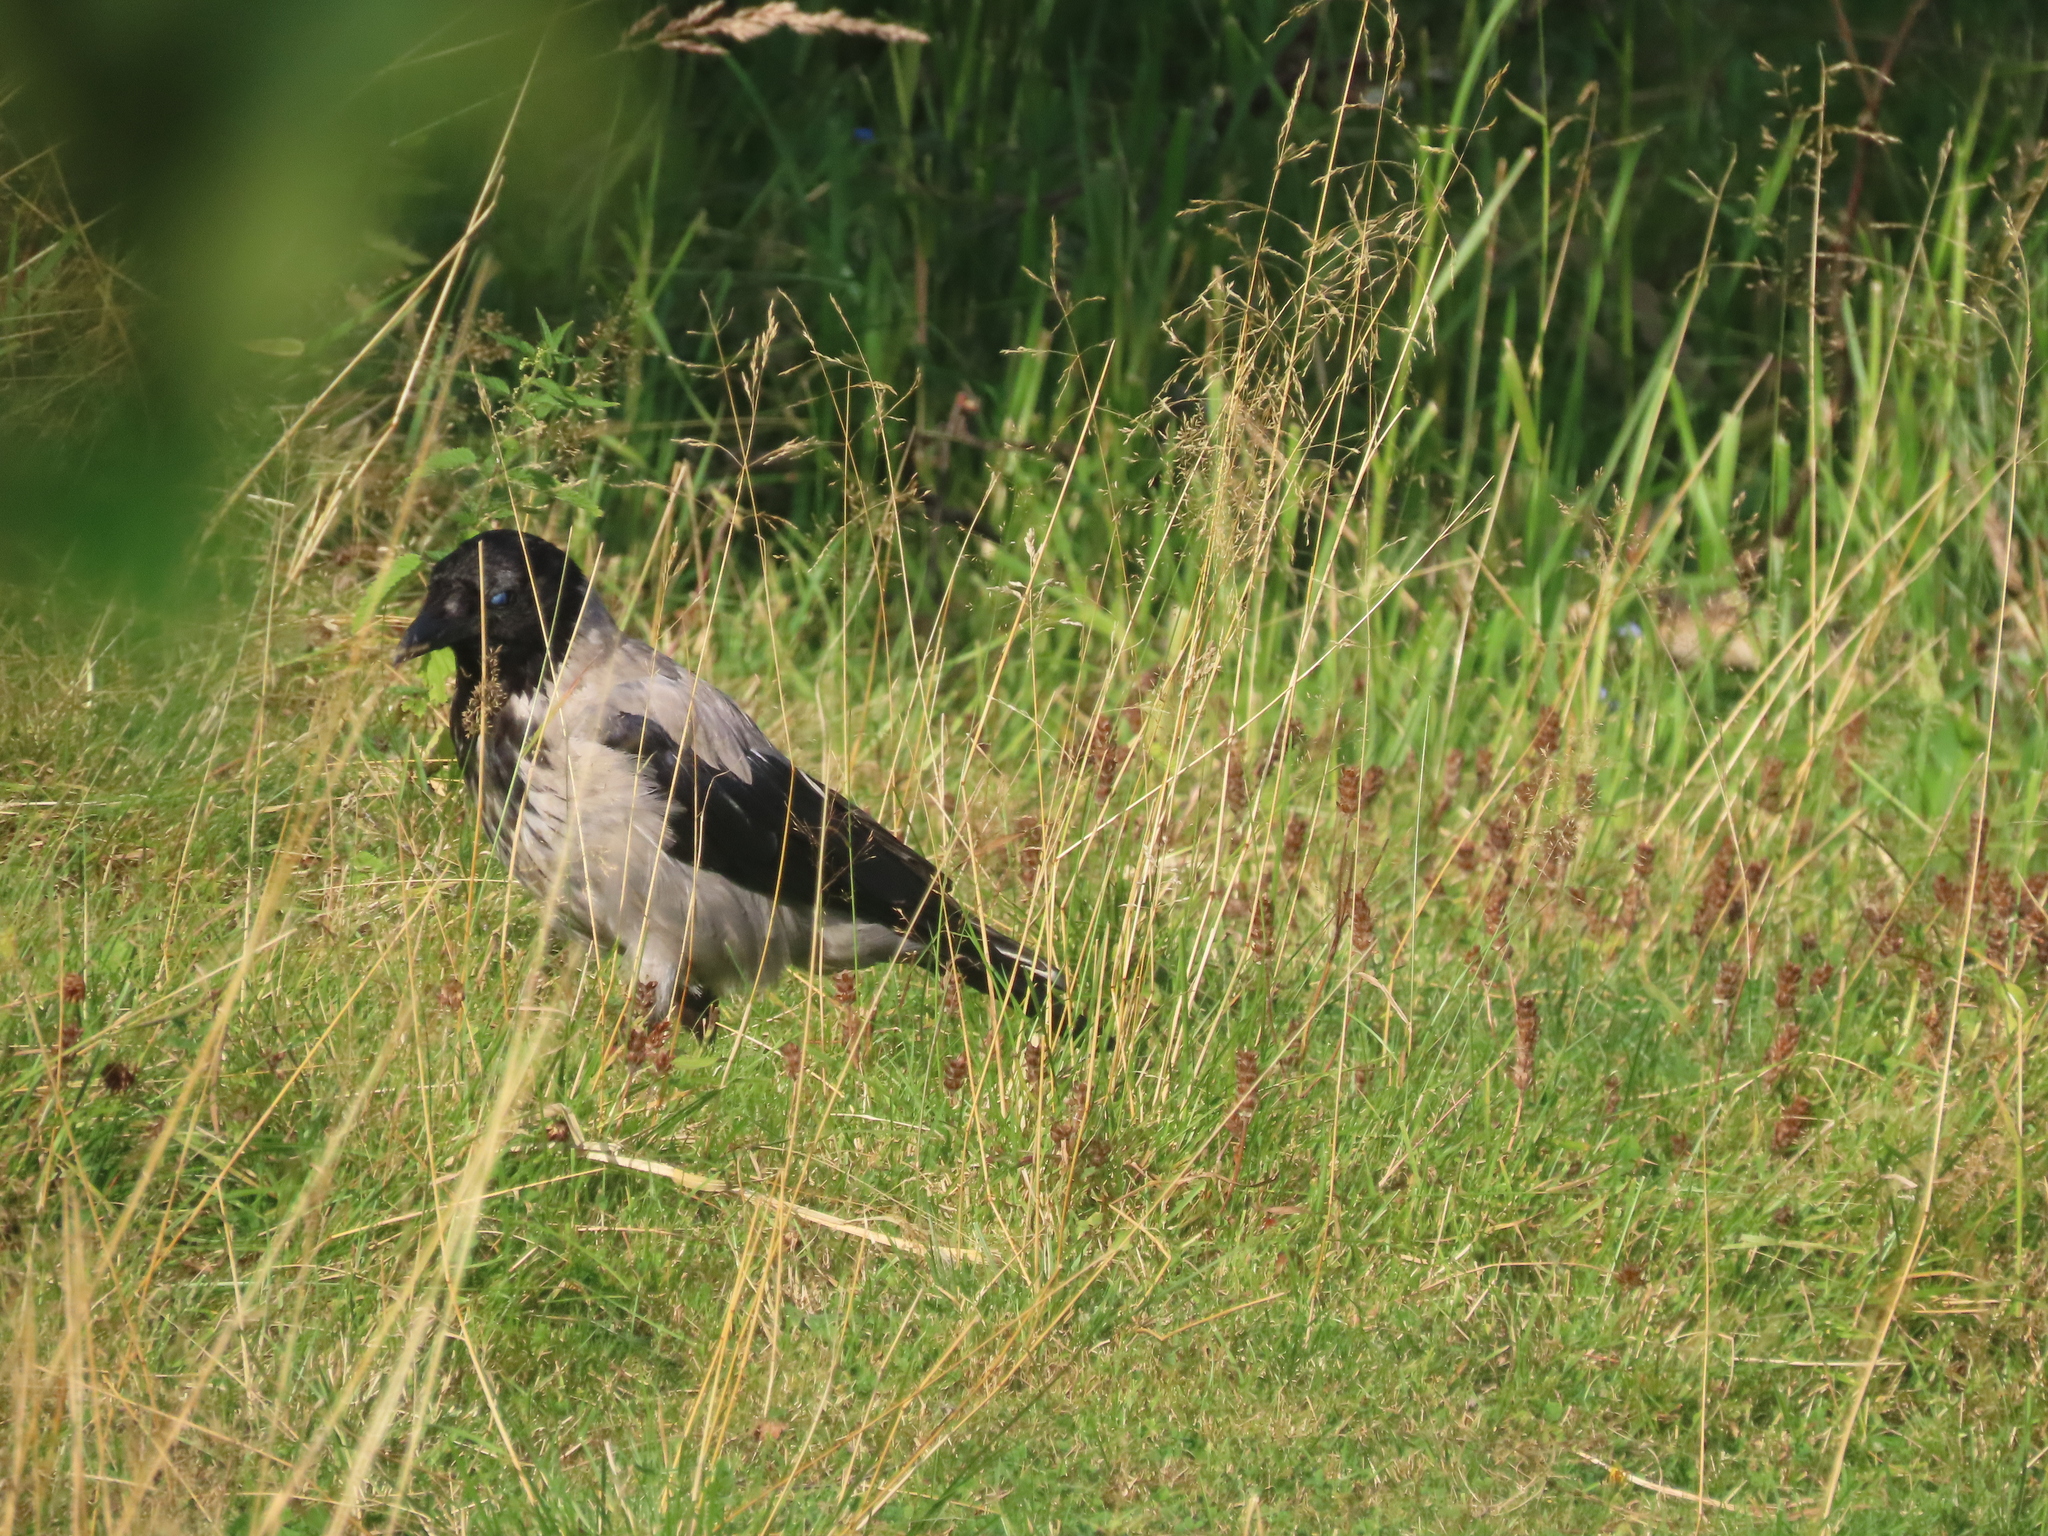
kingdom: Animalia
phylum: Chordata
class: Aves
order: Passeriformes
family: Corvidae
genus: Corvus
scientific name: Corvus cornix
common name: Hooded crow
